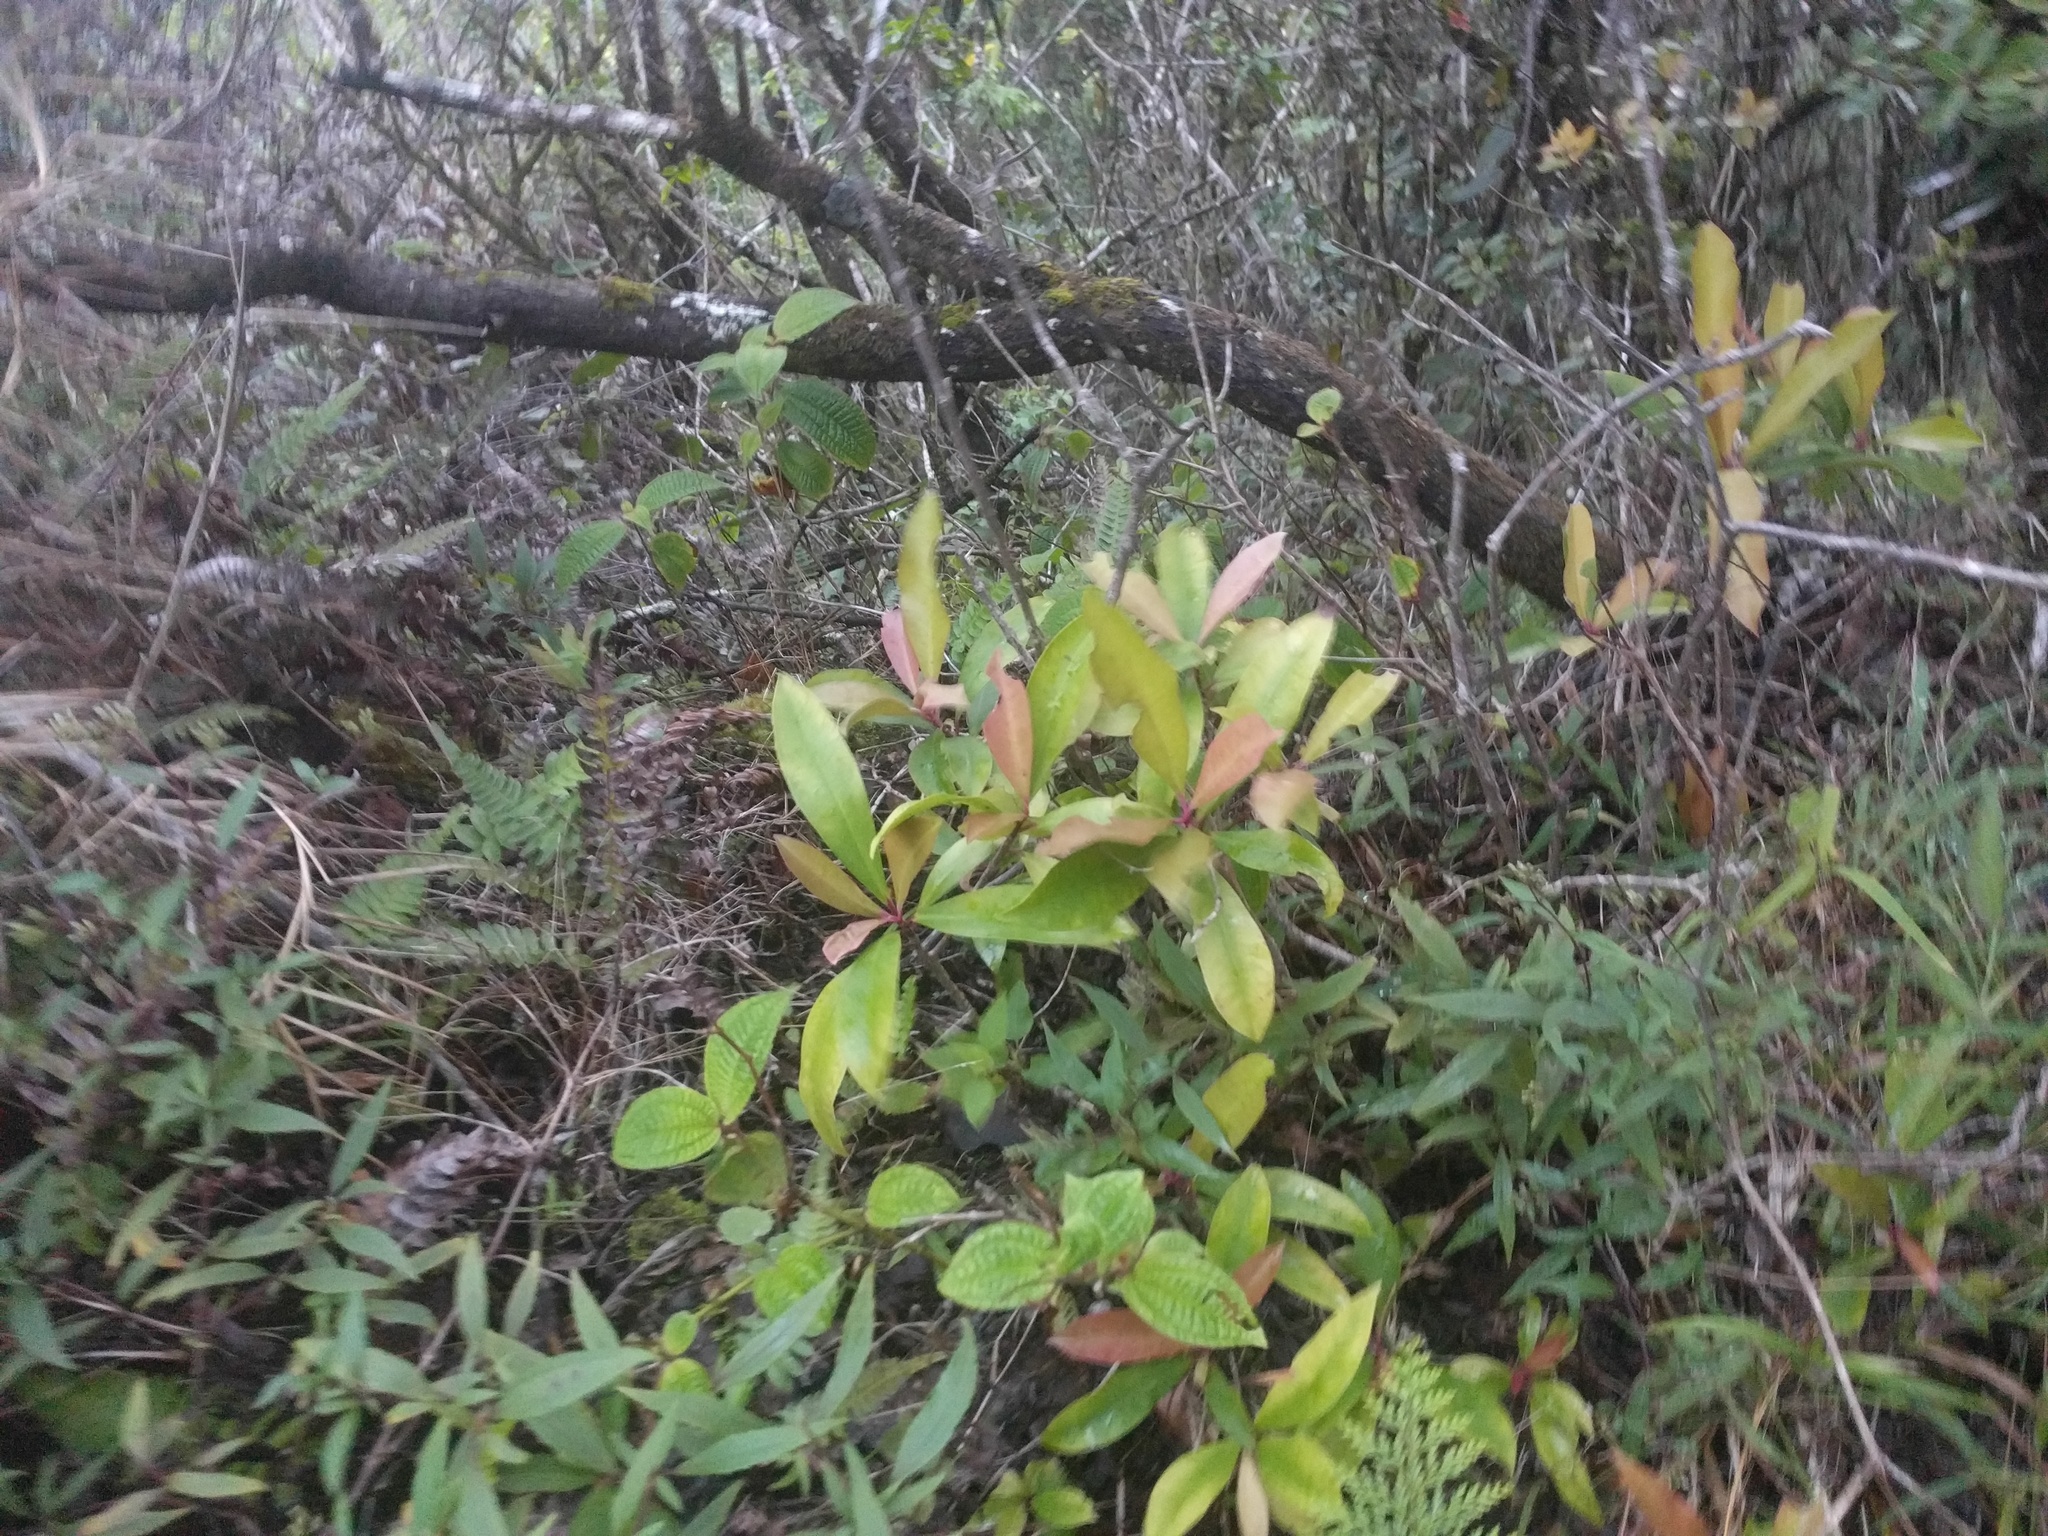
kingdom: Plantae
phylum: Tracheophyta
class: Magnoliopsida
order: Ericales
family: Primulaceae
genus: Ardisia
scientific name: Ardisia elliptica
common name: Shoebutton
